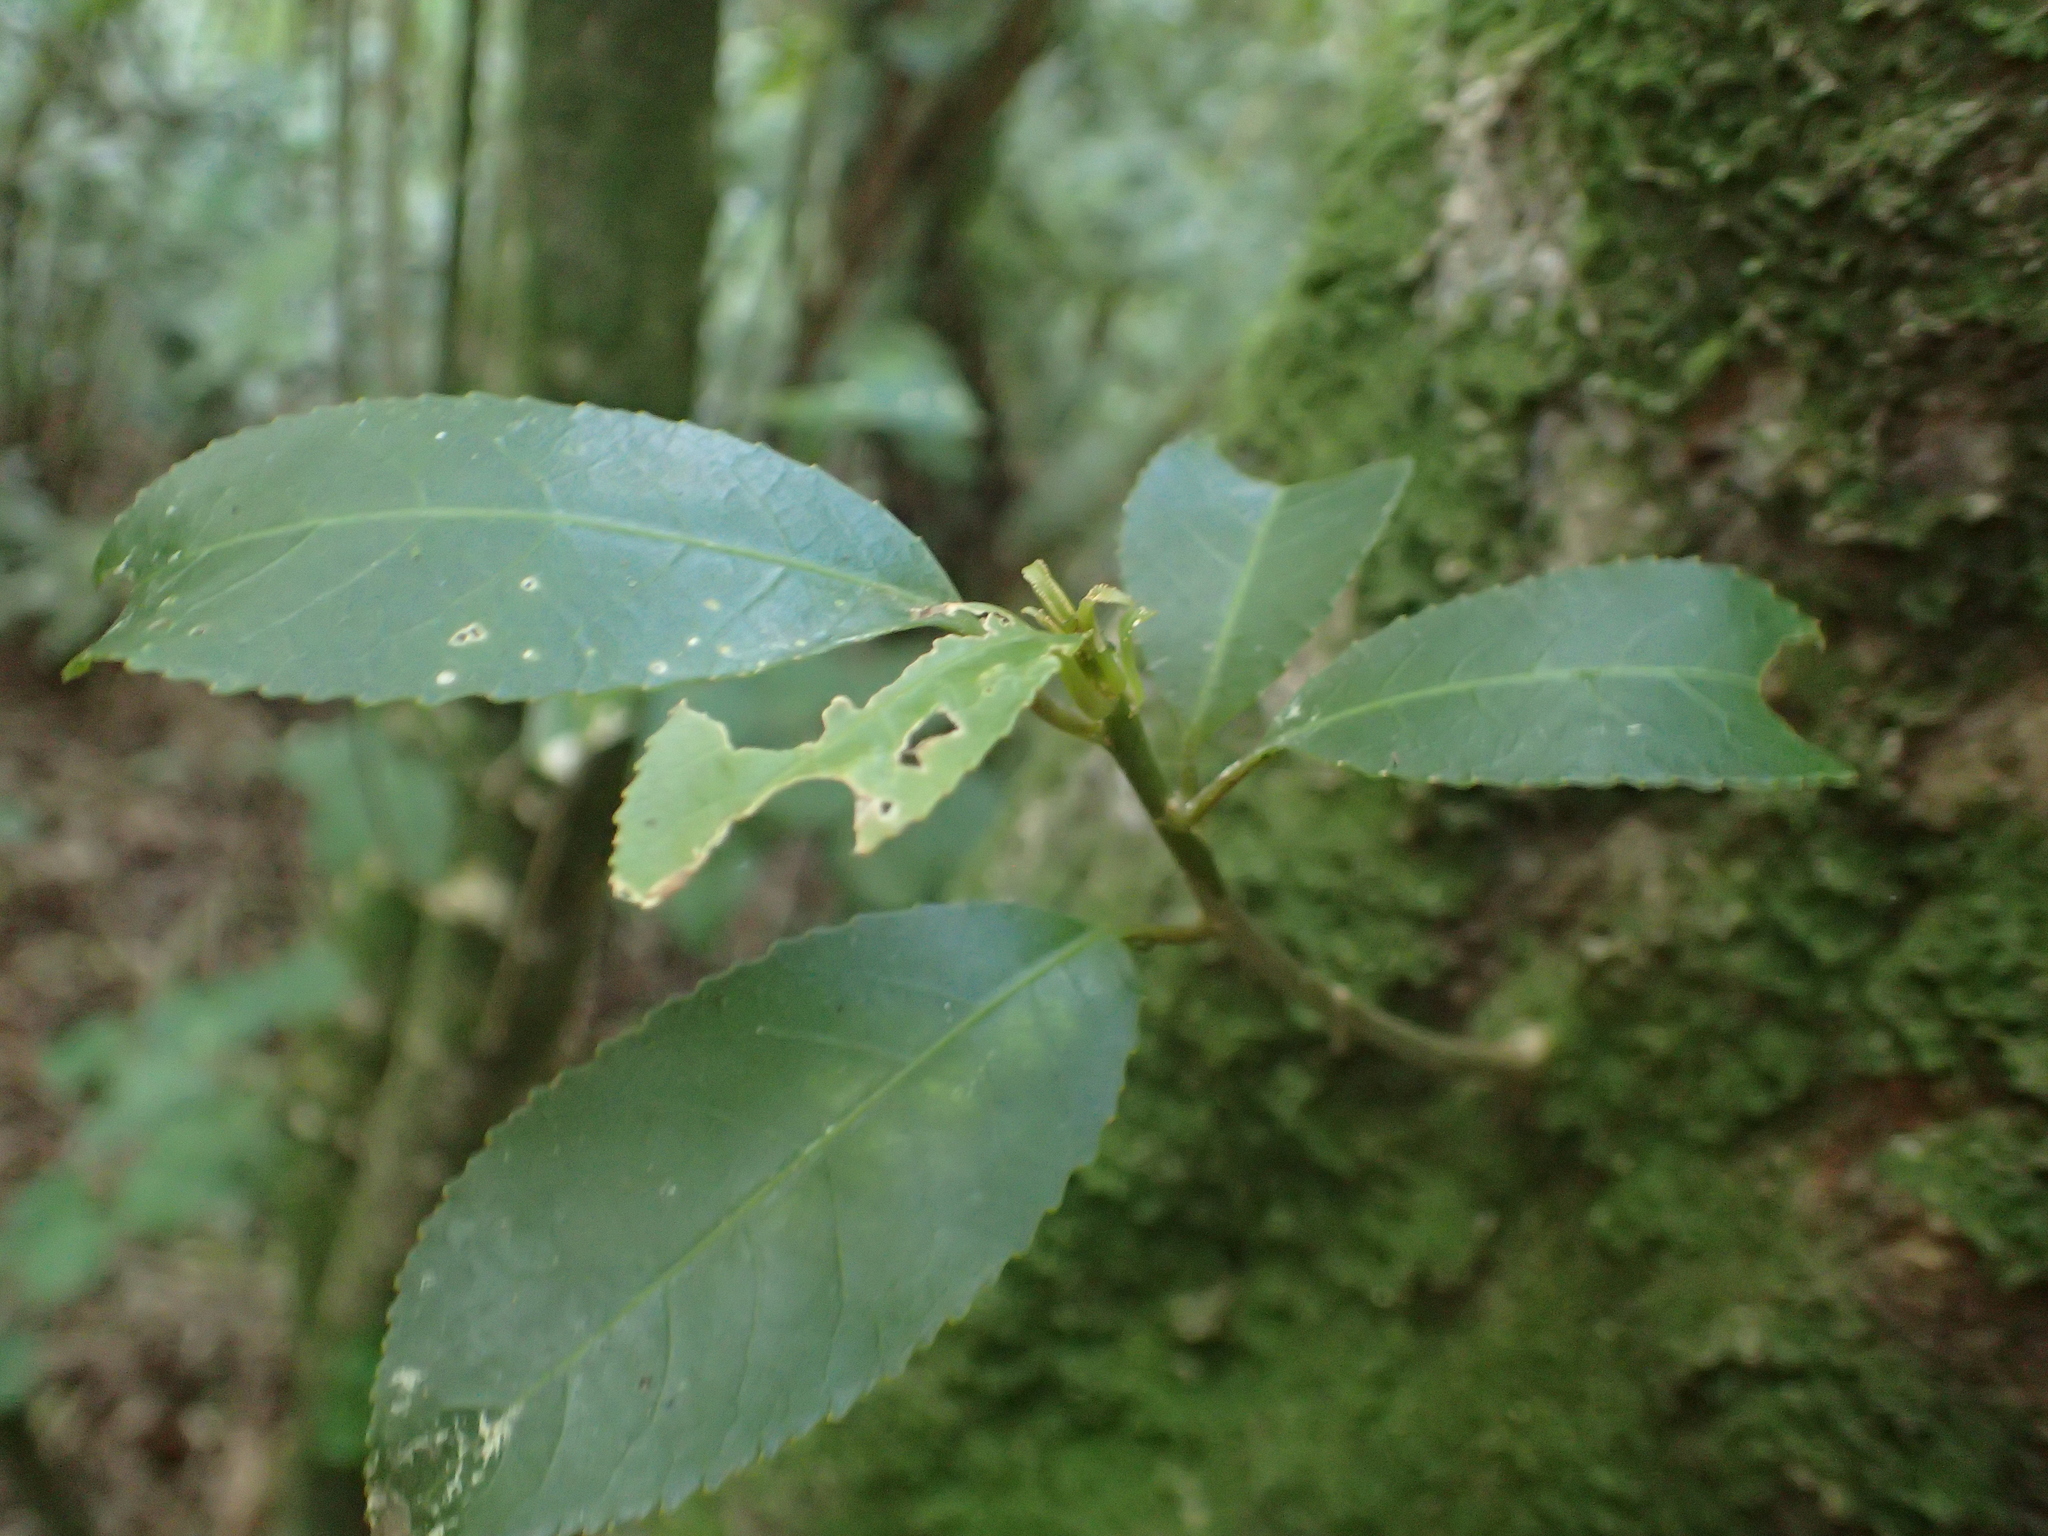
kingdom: Plantae
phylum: Tracheophyta
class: Magnoliopsida
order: Malpighiales
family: Violaceae
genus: Melicytus
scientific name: Melicytus ramiflorus
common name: Mahoe
